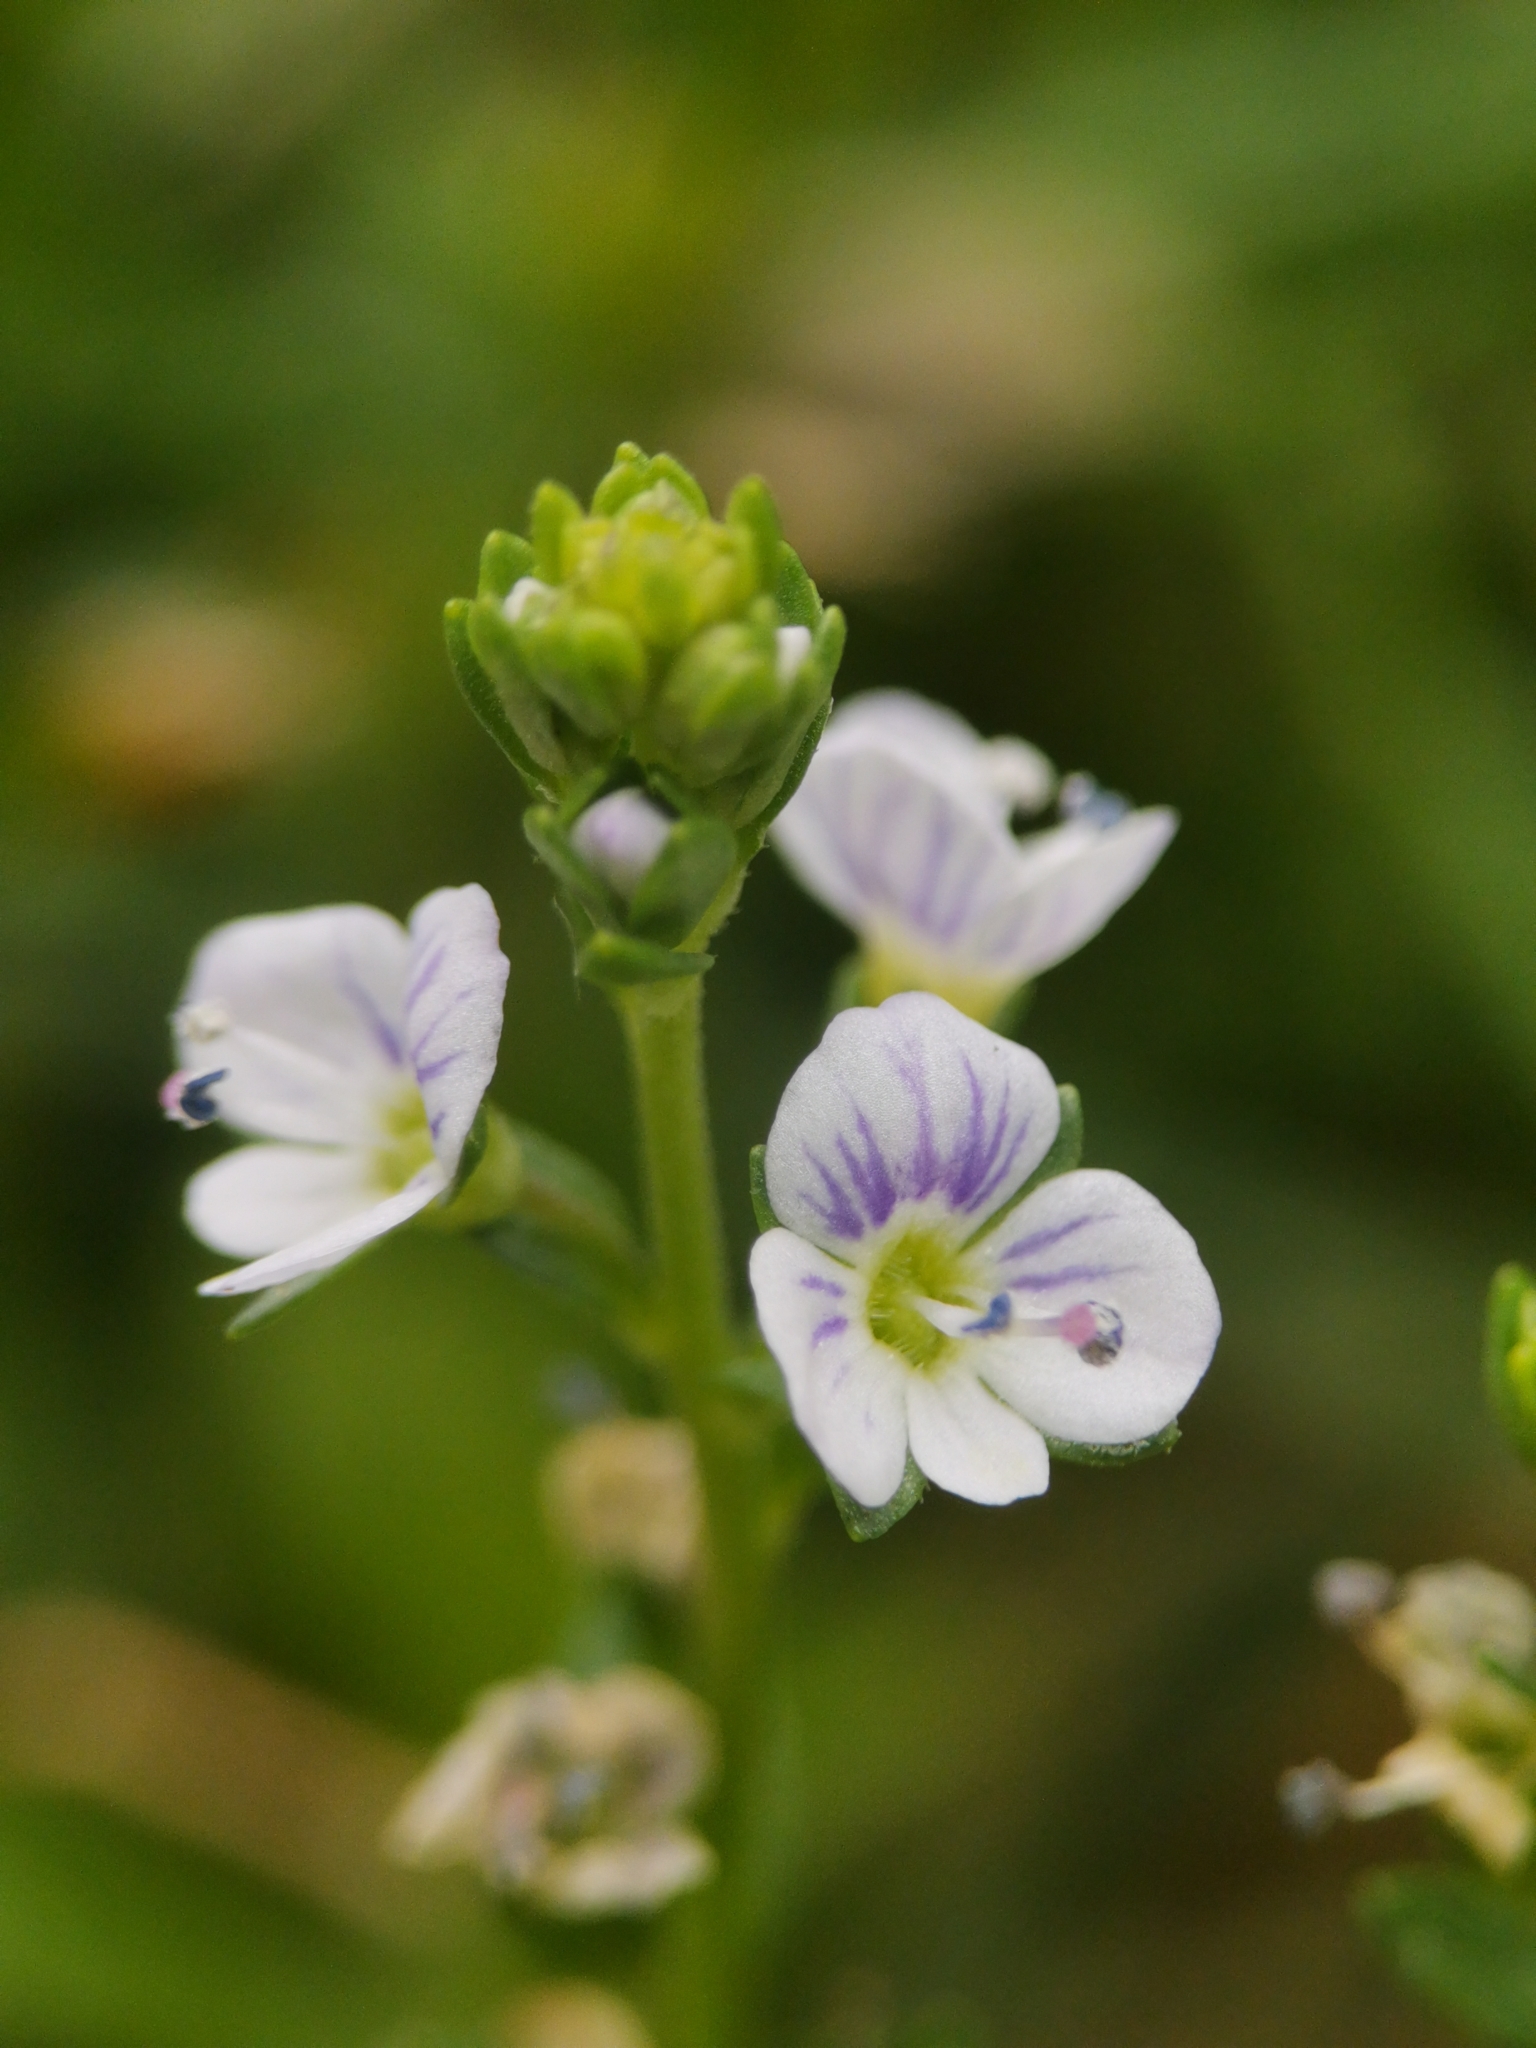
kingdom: Plantae
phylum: Tracheophyta
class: Magnoliopsida
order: Lamiales
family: Plantaginaceae
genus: Veronica
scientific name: Veronica serpyllifolia
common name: Thyme-leaved speedwell
